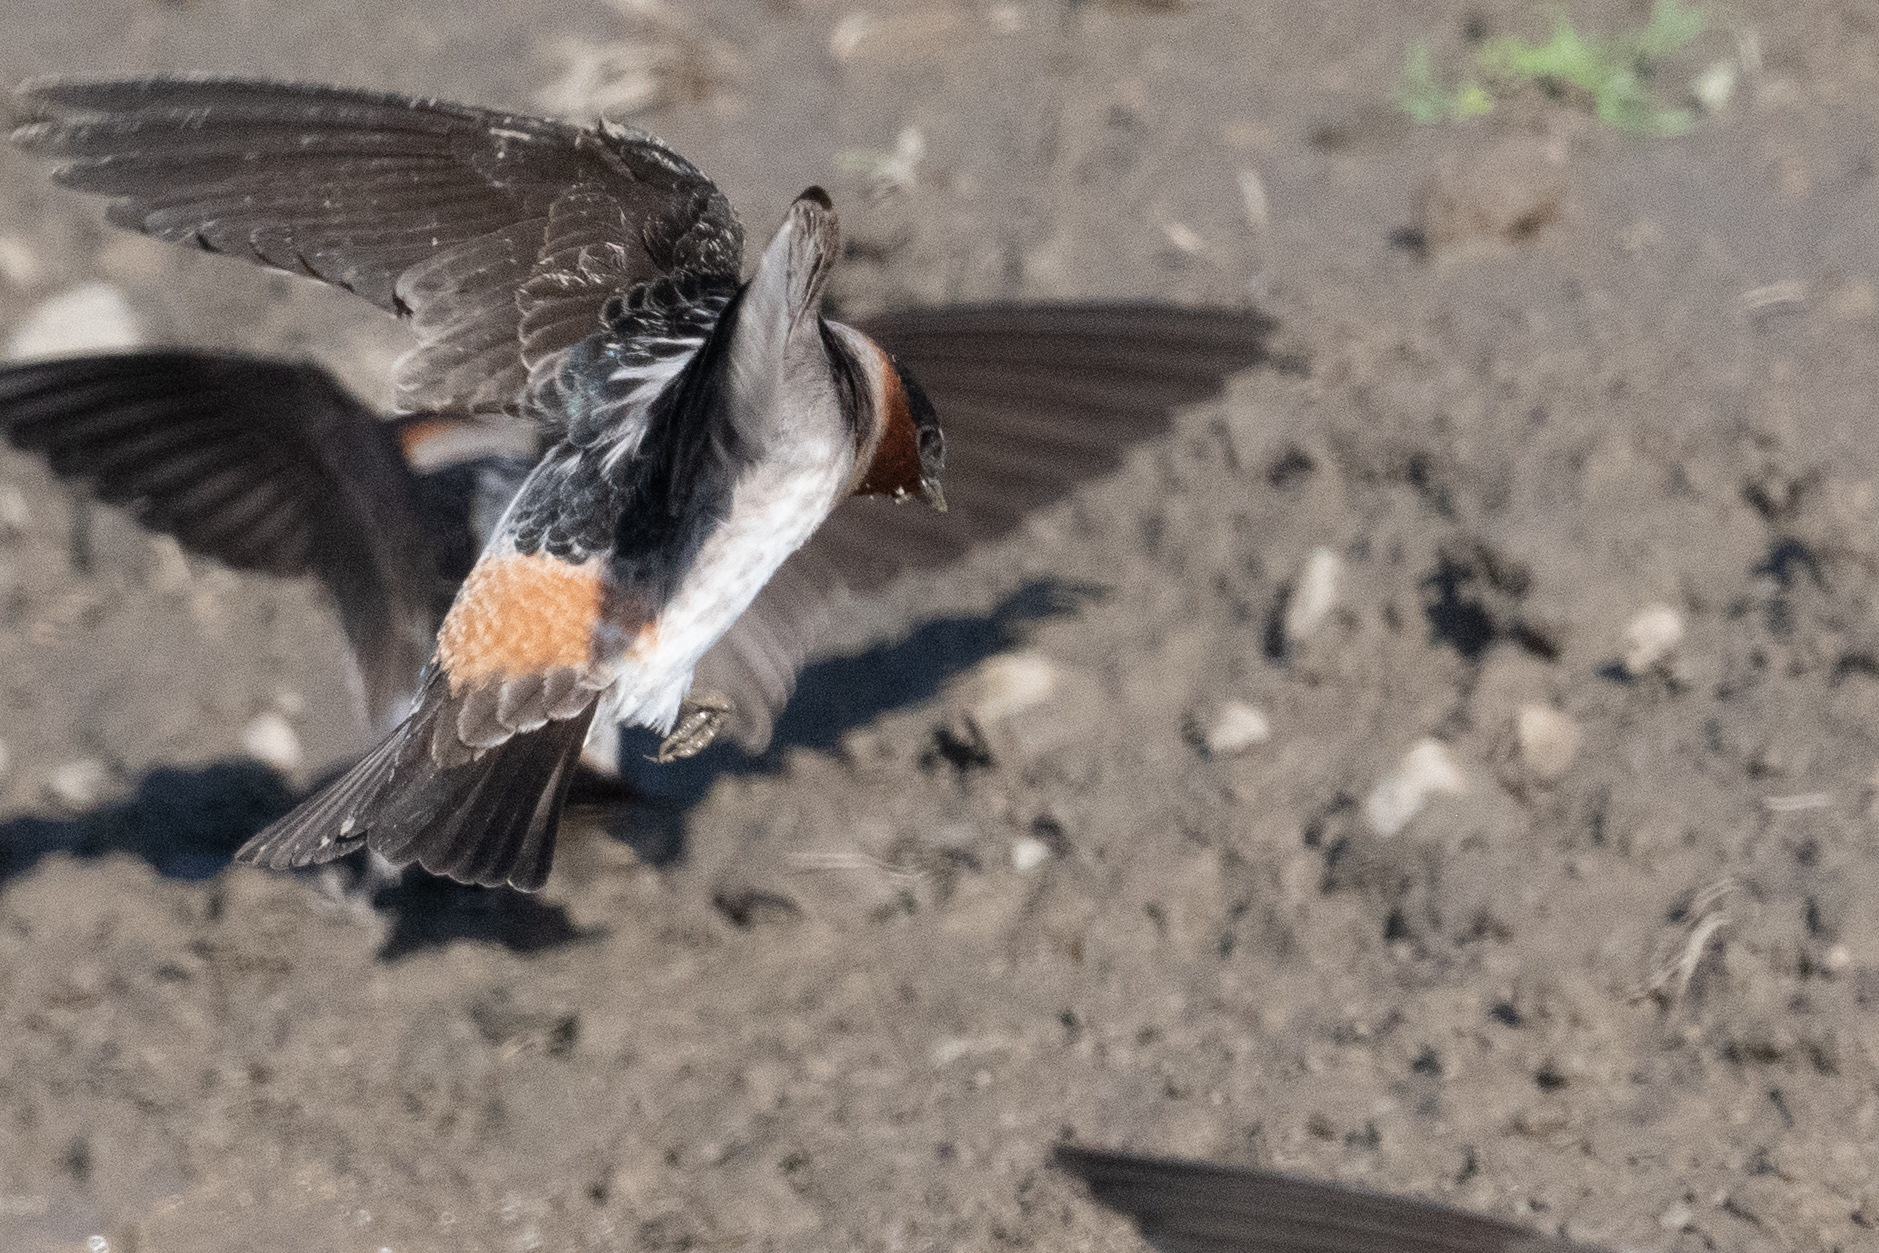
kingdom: Animalia
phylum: Chordata
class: Aves
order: Passeriformes
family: Hirundinidae
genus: Petrochelidon
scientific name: Petrochelidon pyrrhonota
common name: American cliff swallow
